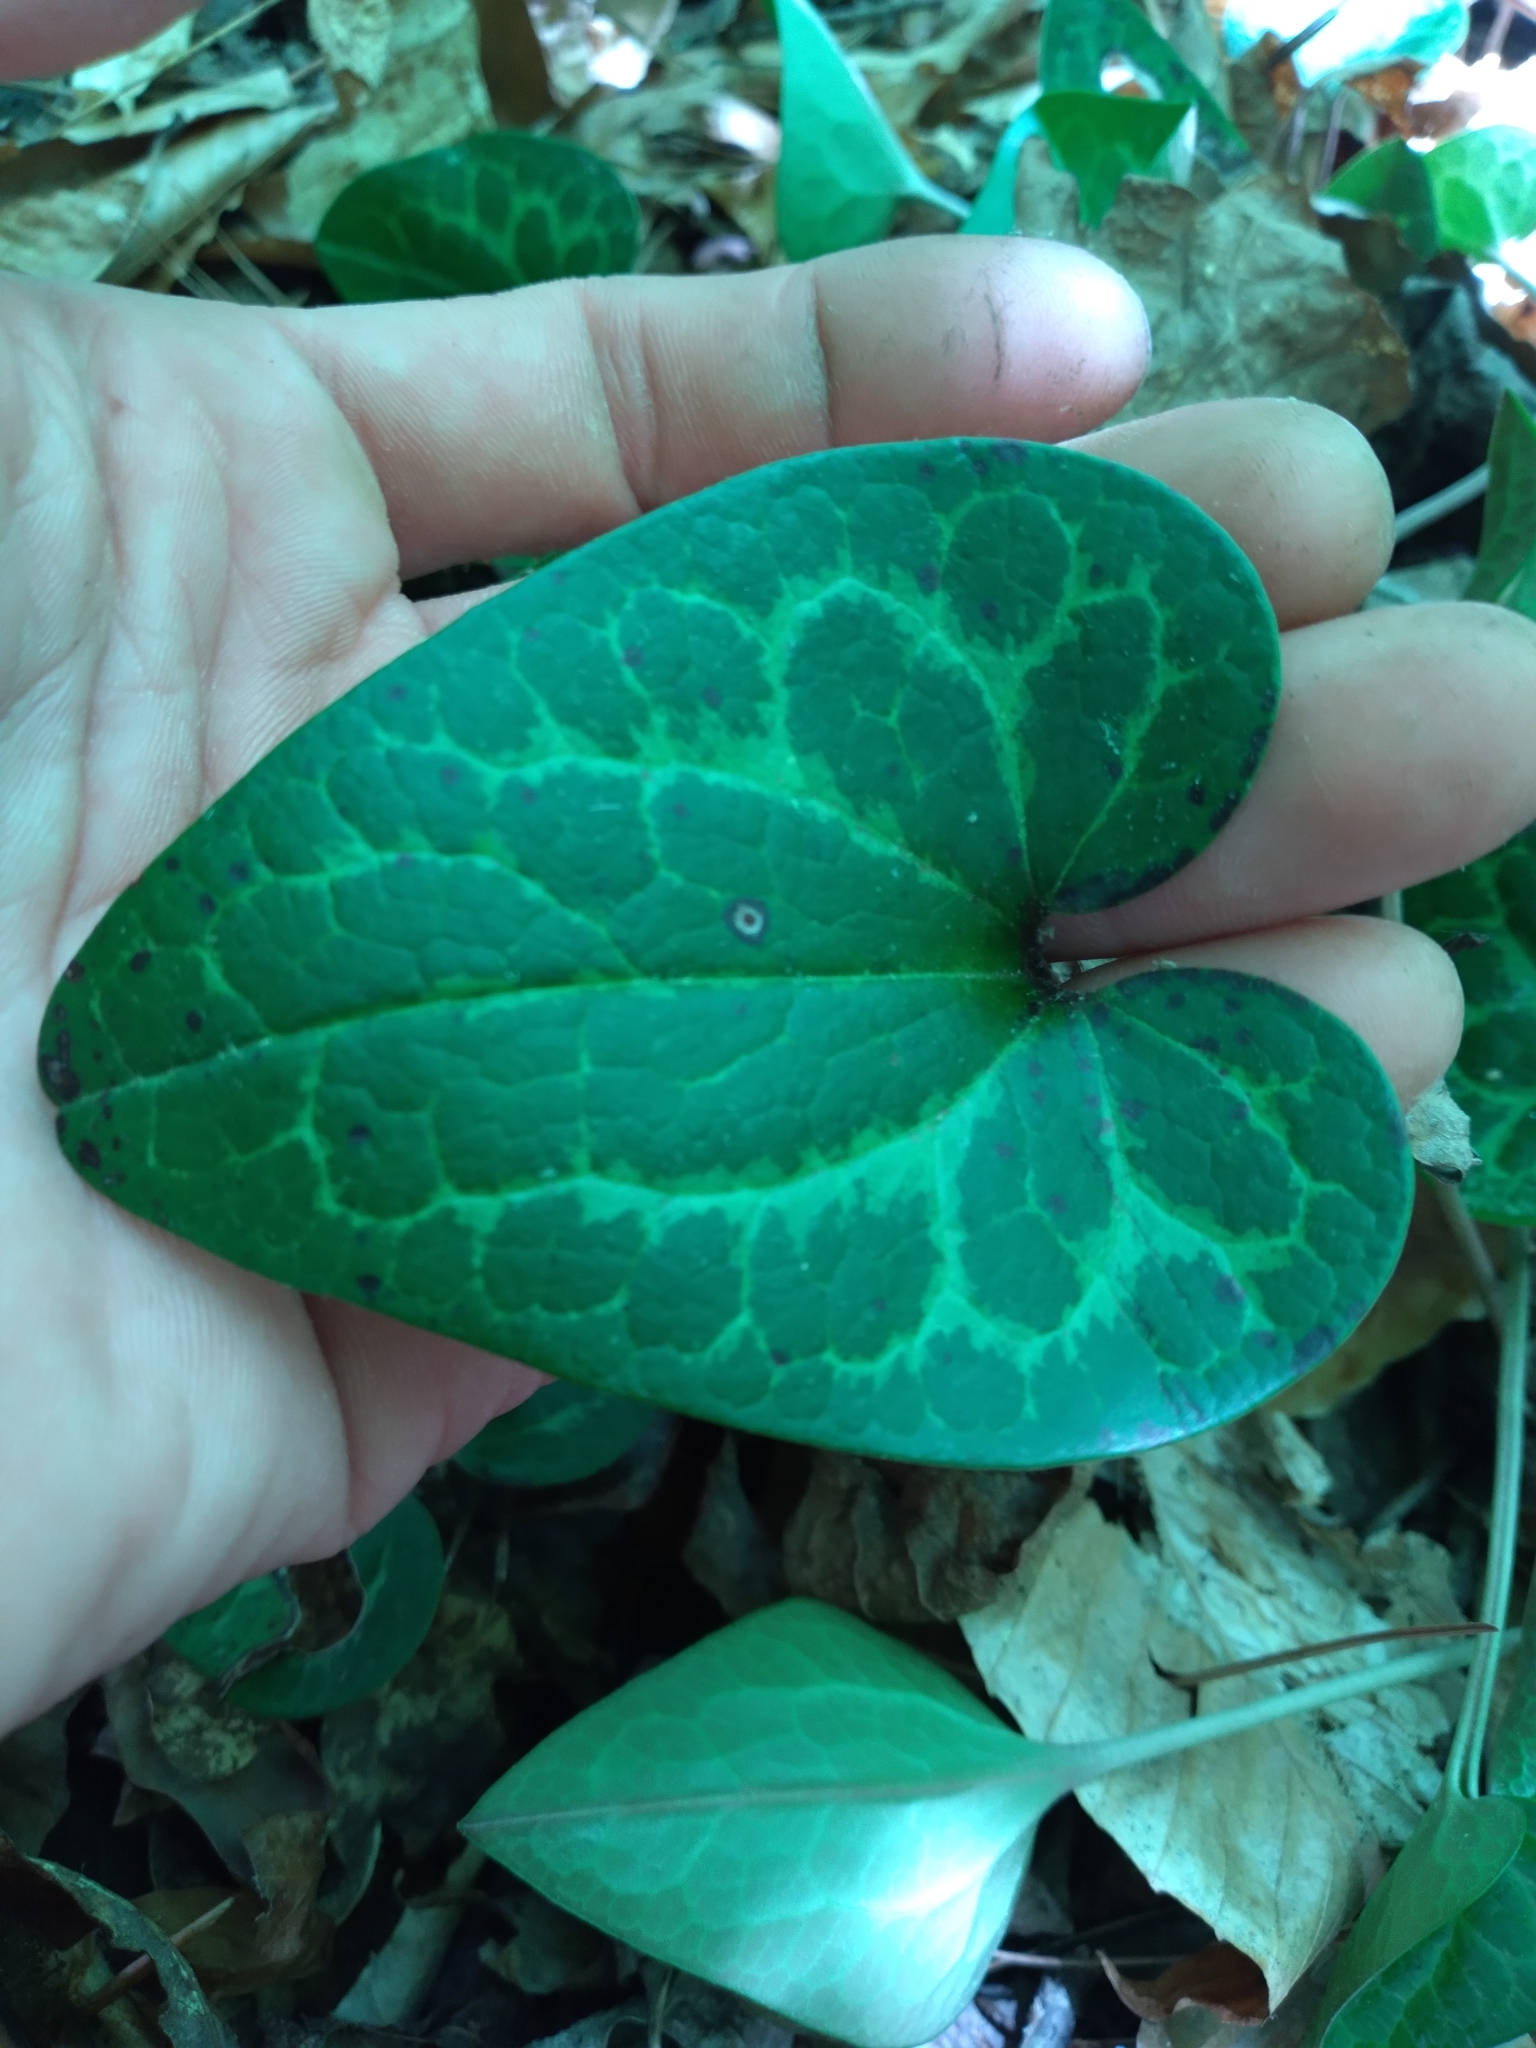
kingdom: Plantae
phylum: Tracheophyta
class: Magnoliopsida
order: Piperales
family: Aristolochiaceae
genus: Hexastylis
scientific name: Hexastylis shuttleworthii
